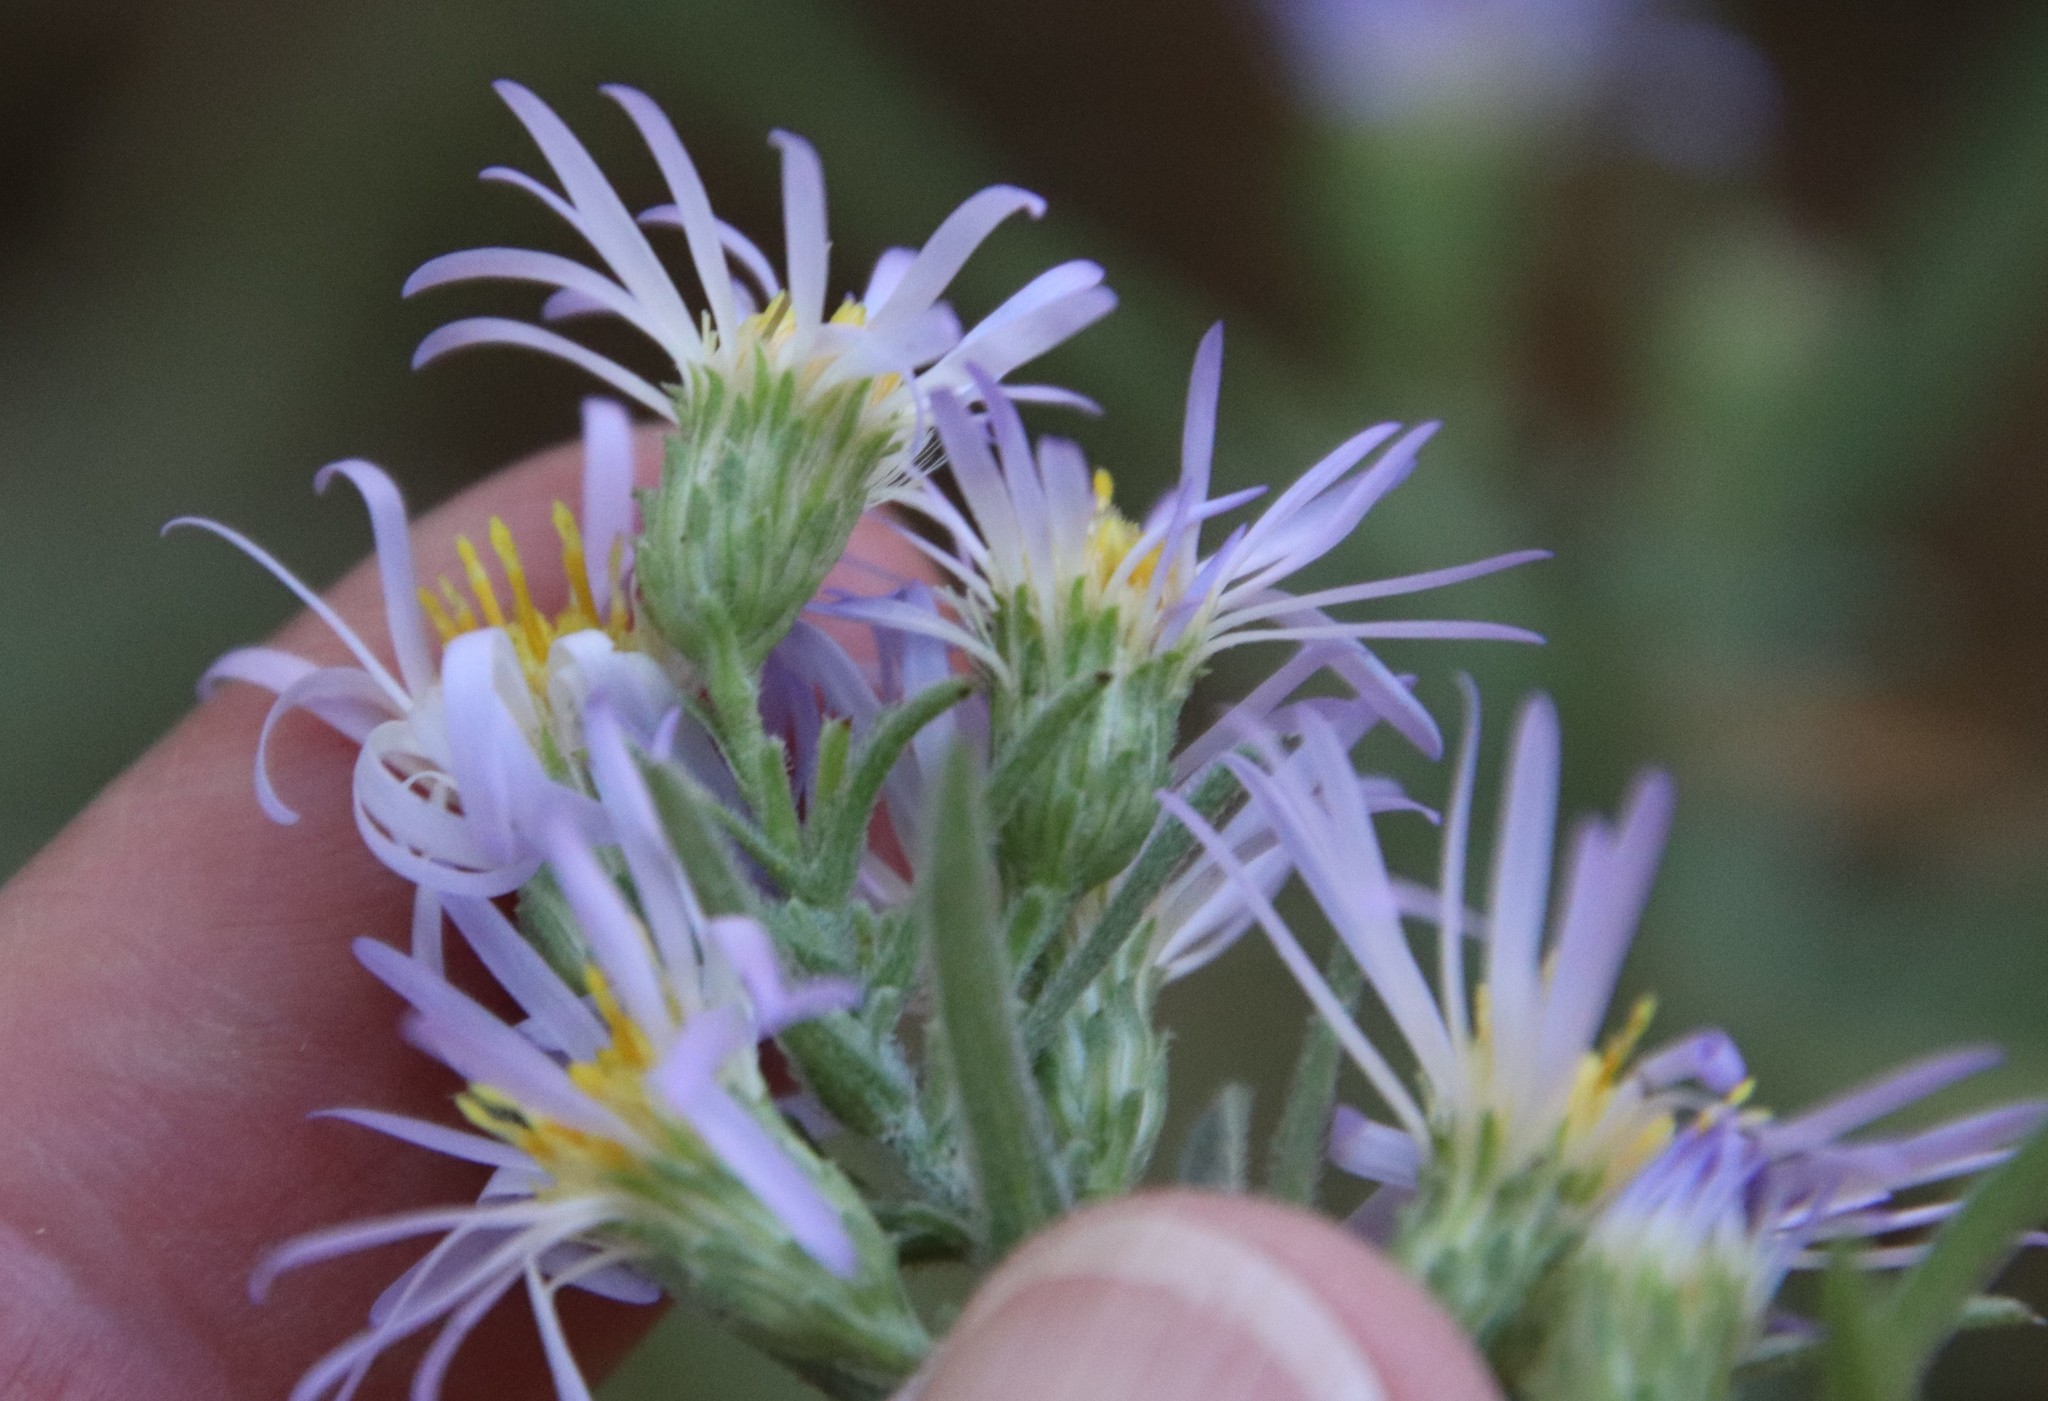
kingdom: Plantae
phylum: Tracheophyta
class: Magnoliopsida
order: Asterales
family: Asteraceae
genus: Symphyotrichum
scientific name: Symphyotrichum defoliatum
